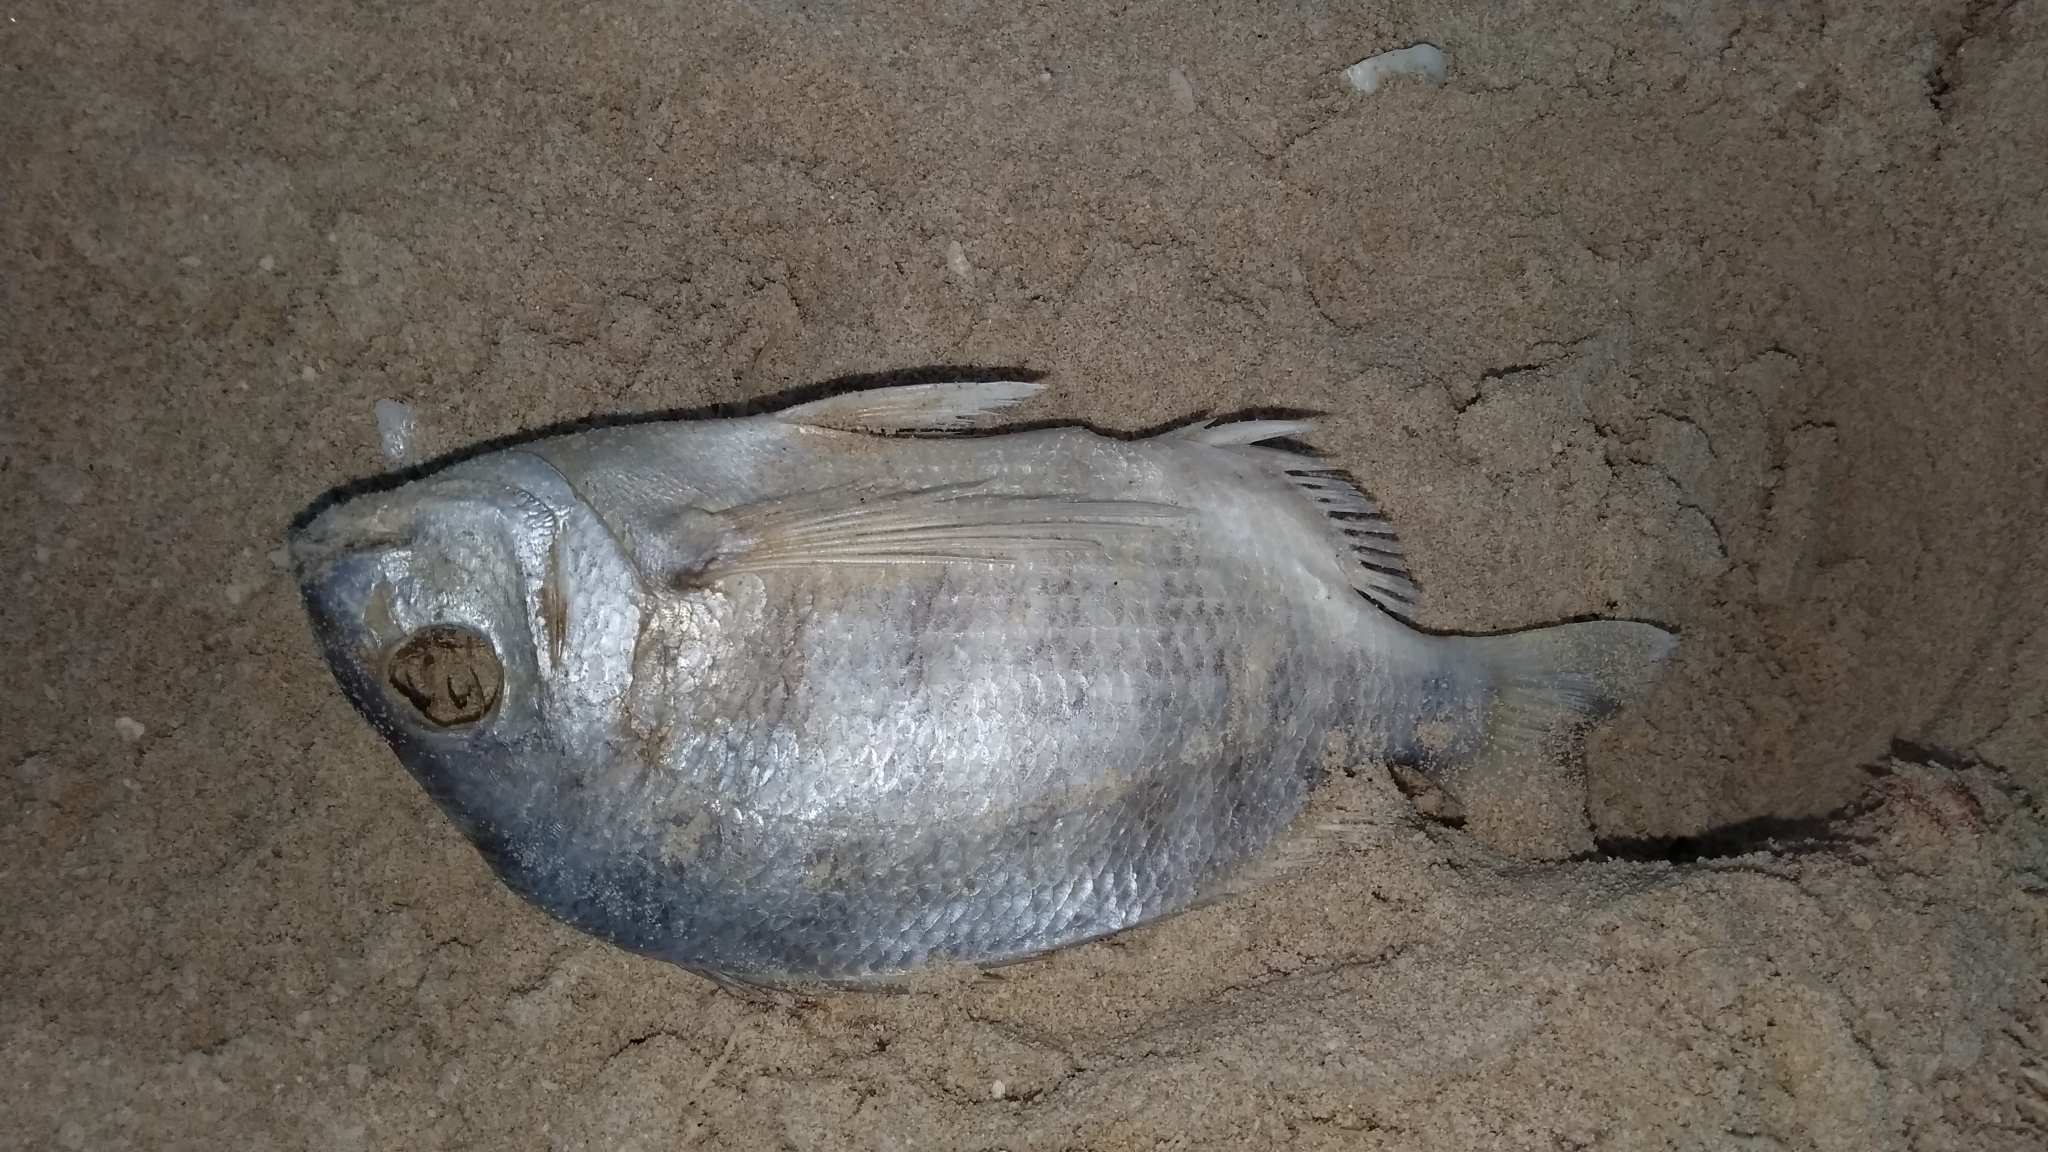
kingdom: Animalia
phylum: Chordata
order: Perciformes
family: Sparidae
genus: Archosargus
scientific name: Archosargus probatocephalus
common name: Sheepshead
